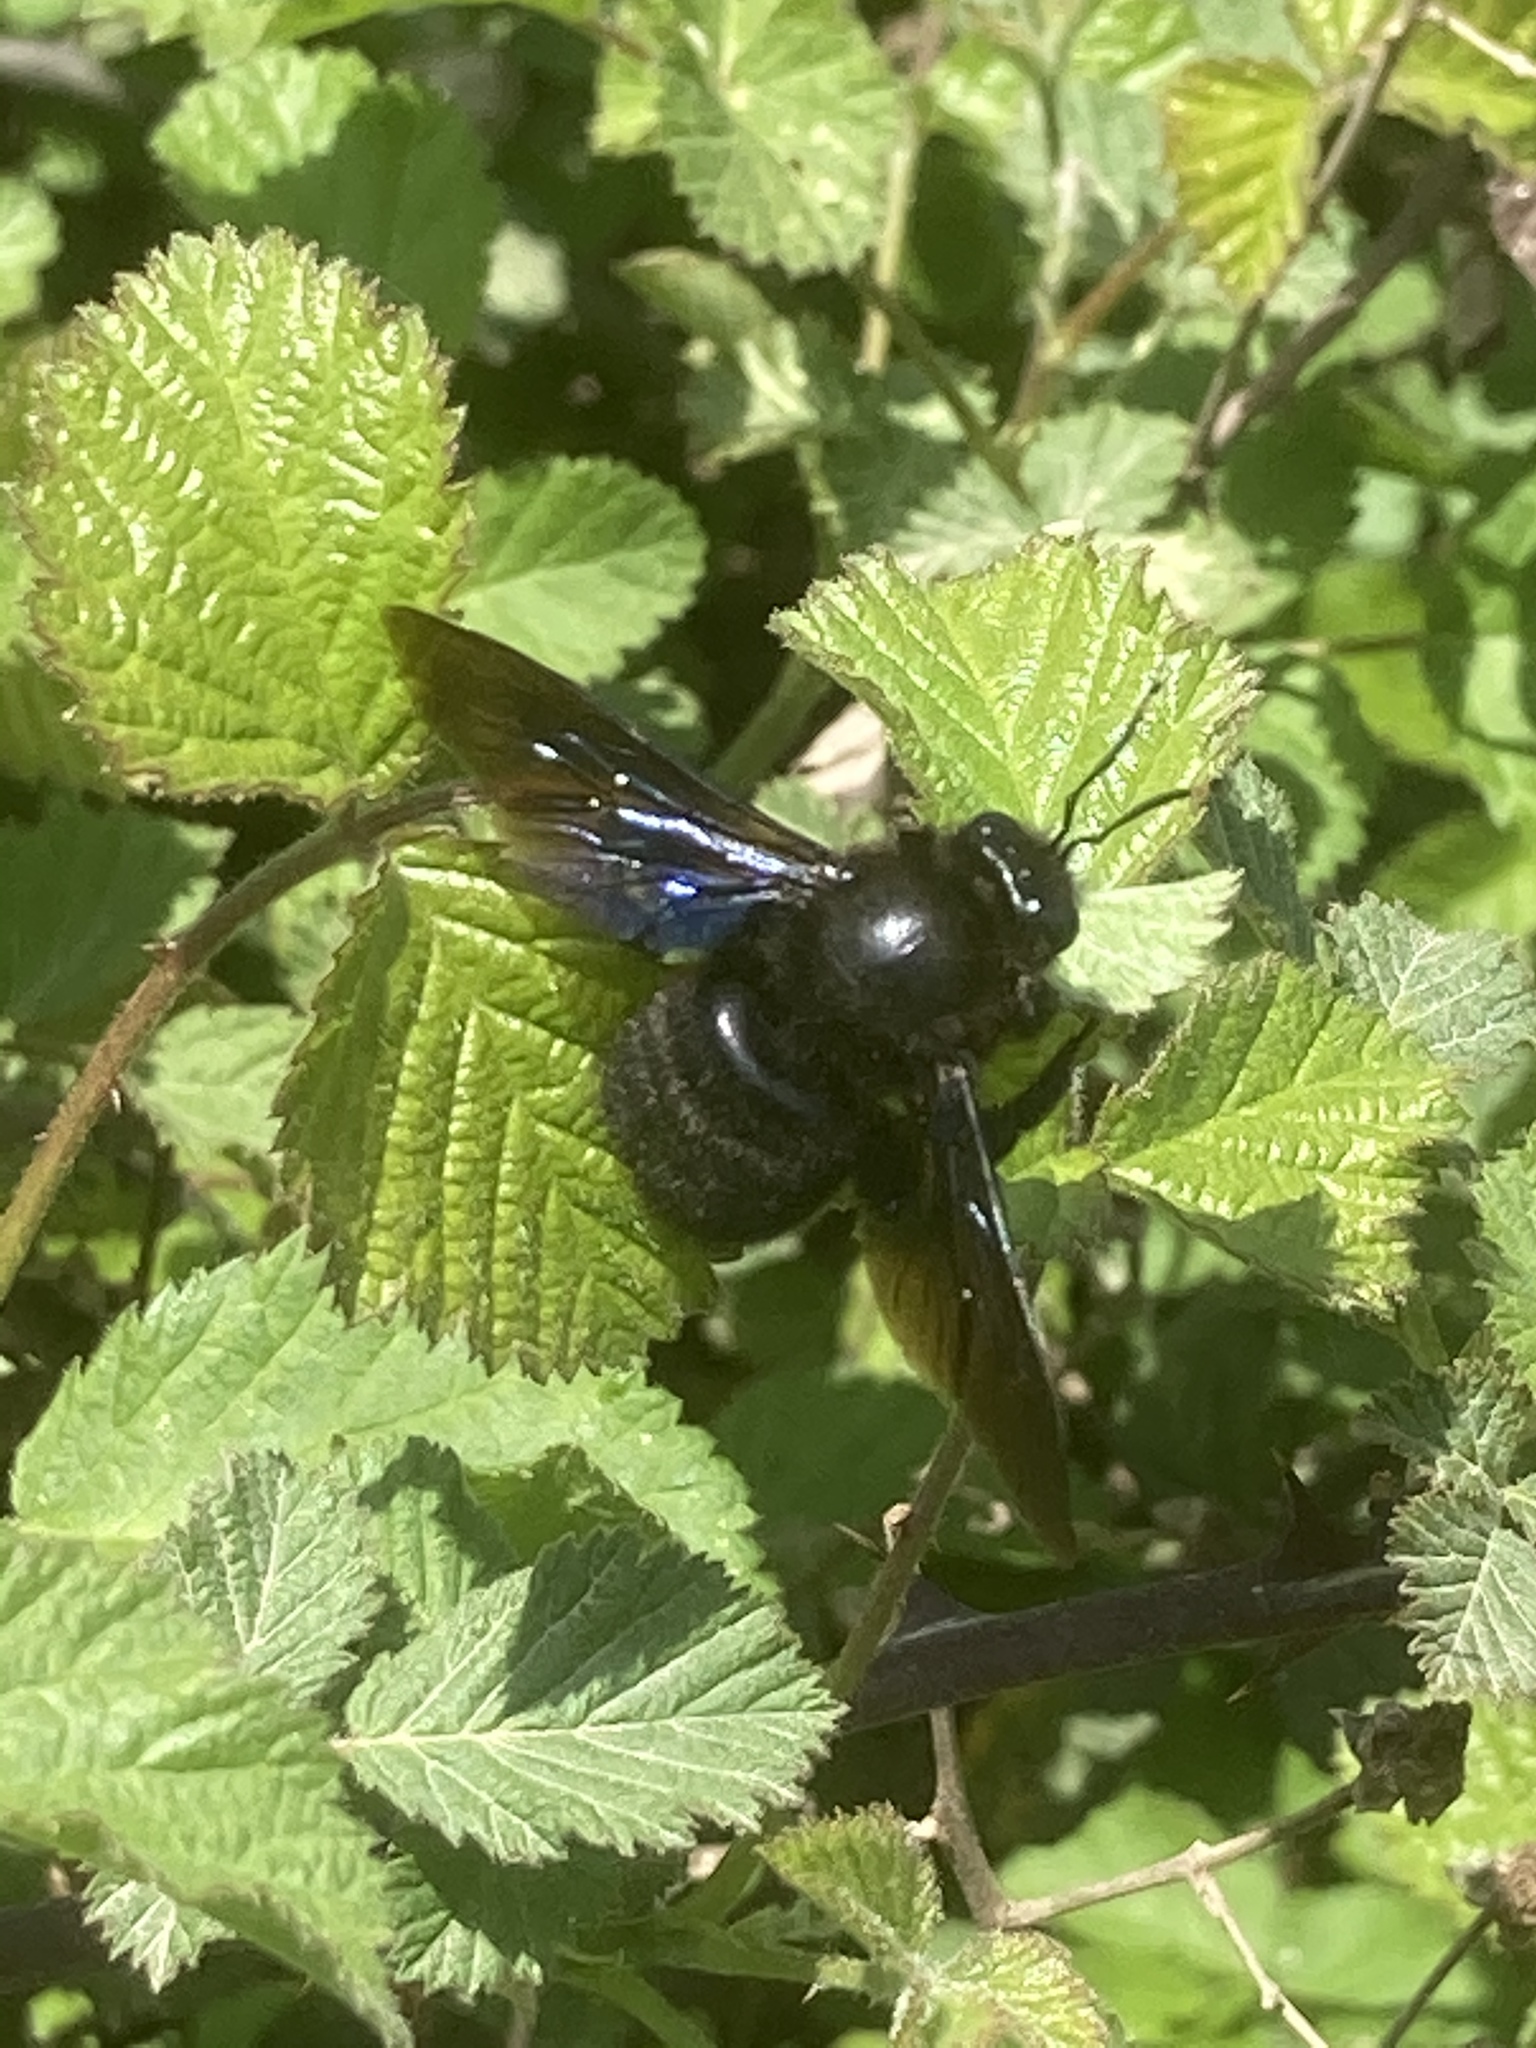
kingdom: Animalia
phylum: Arthropoda
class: Insecta
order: Hymenoptera
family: Apidae
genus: Xylocopa
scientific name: Xylocopa violacea
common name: Violet carpenter bee
